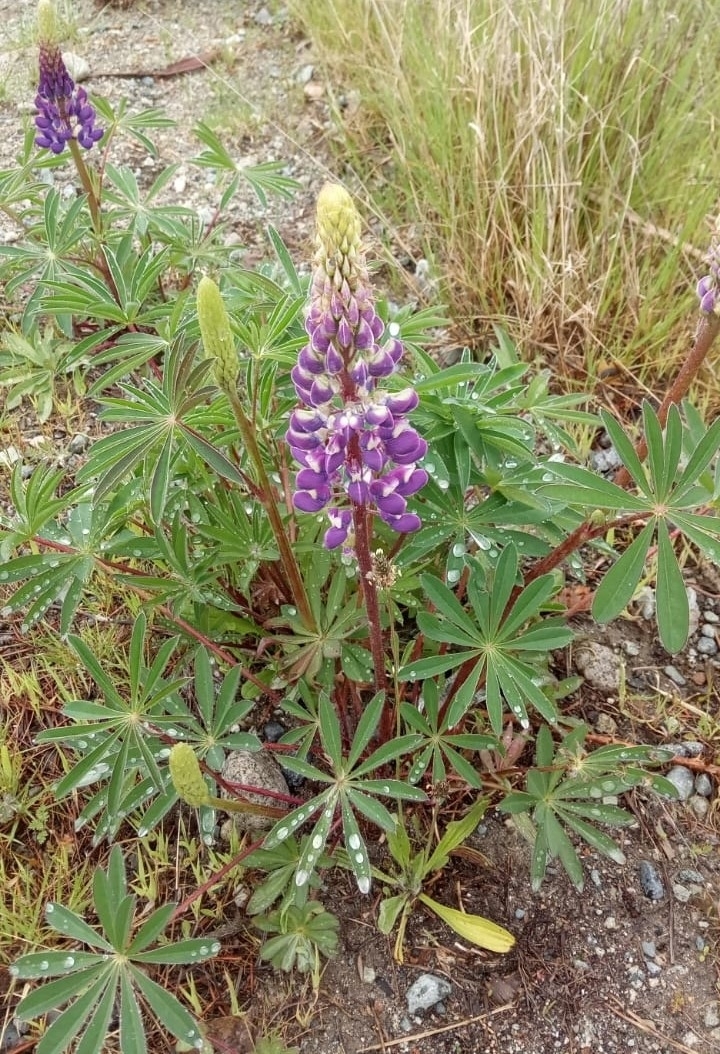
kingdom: Plantae
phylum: Tracheophyta
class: Magnoliopsida
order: Fabales
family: Fabaceae
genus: Lupinus
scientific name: Lupinus polyphyllus
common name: Garden lupin
